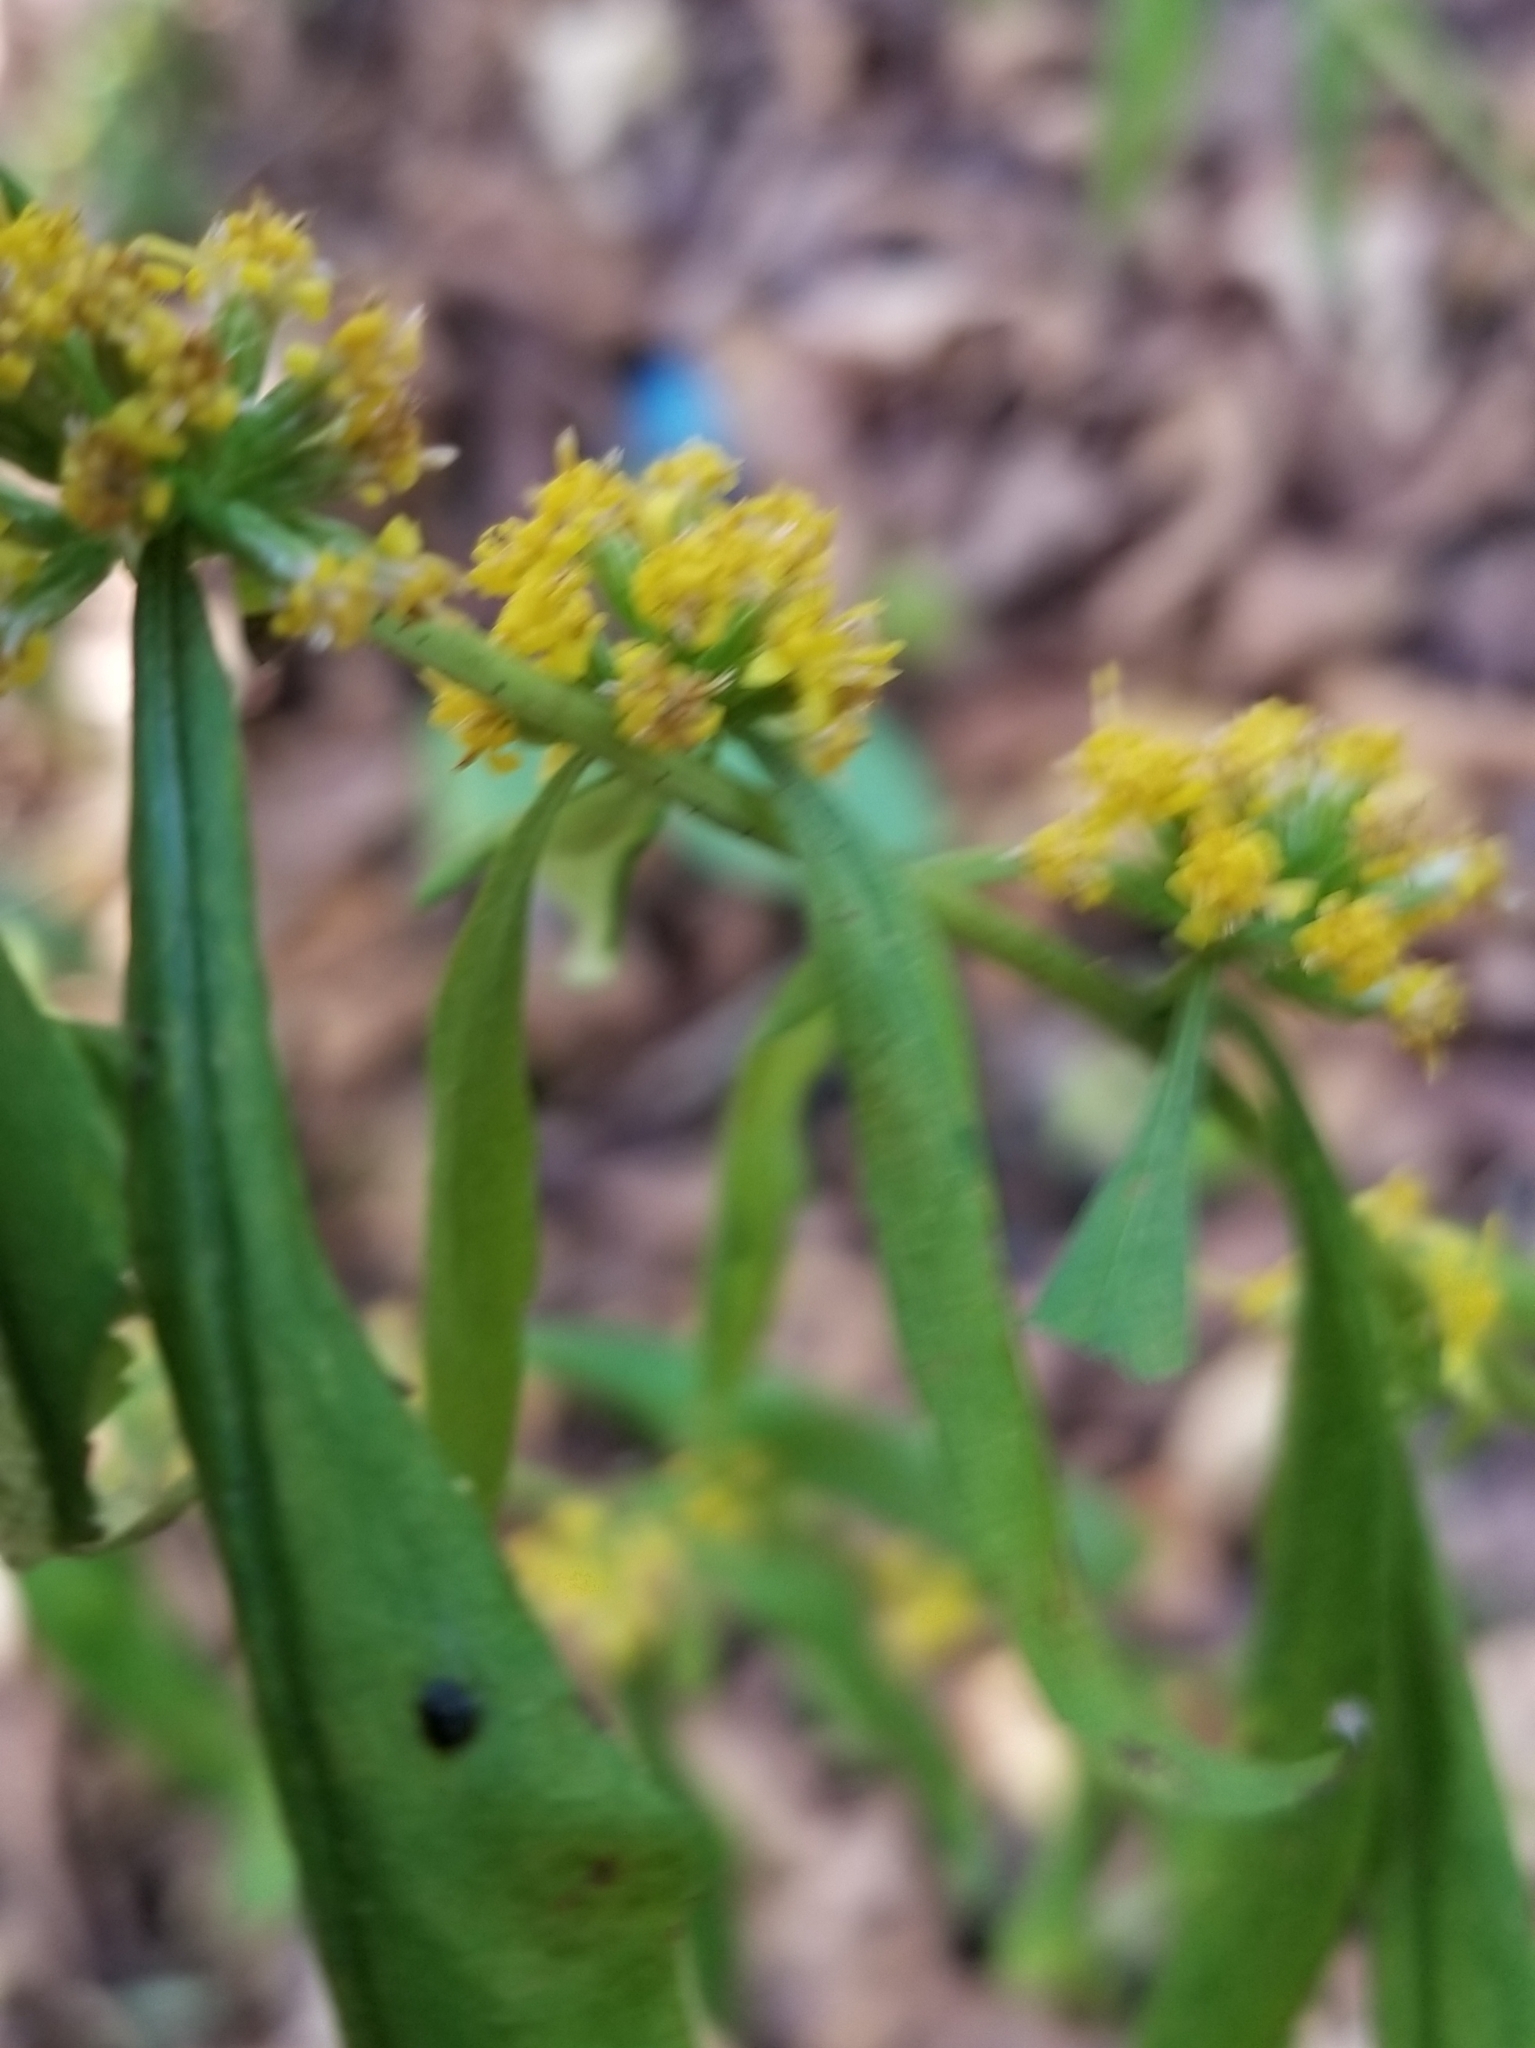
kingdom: Plantae
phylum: Tracheophyta
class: Magnoliopsida
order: Asterales
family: Asteraceae
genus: Solidago
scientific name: Solidago caesia
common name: Woodland goldenrod
